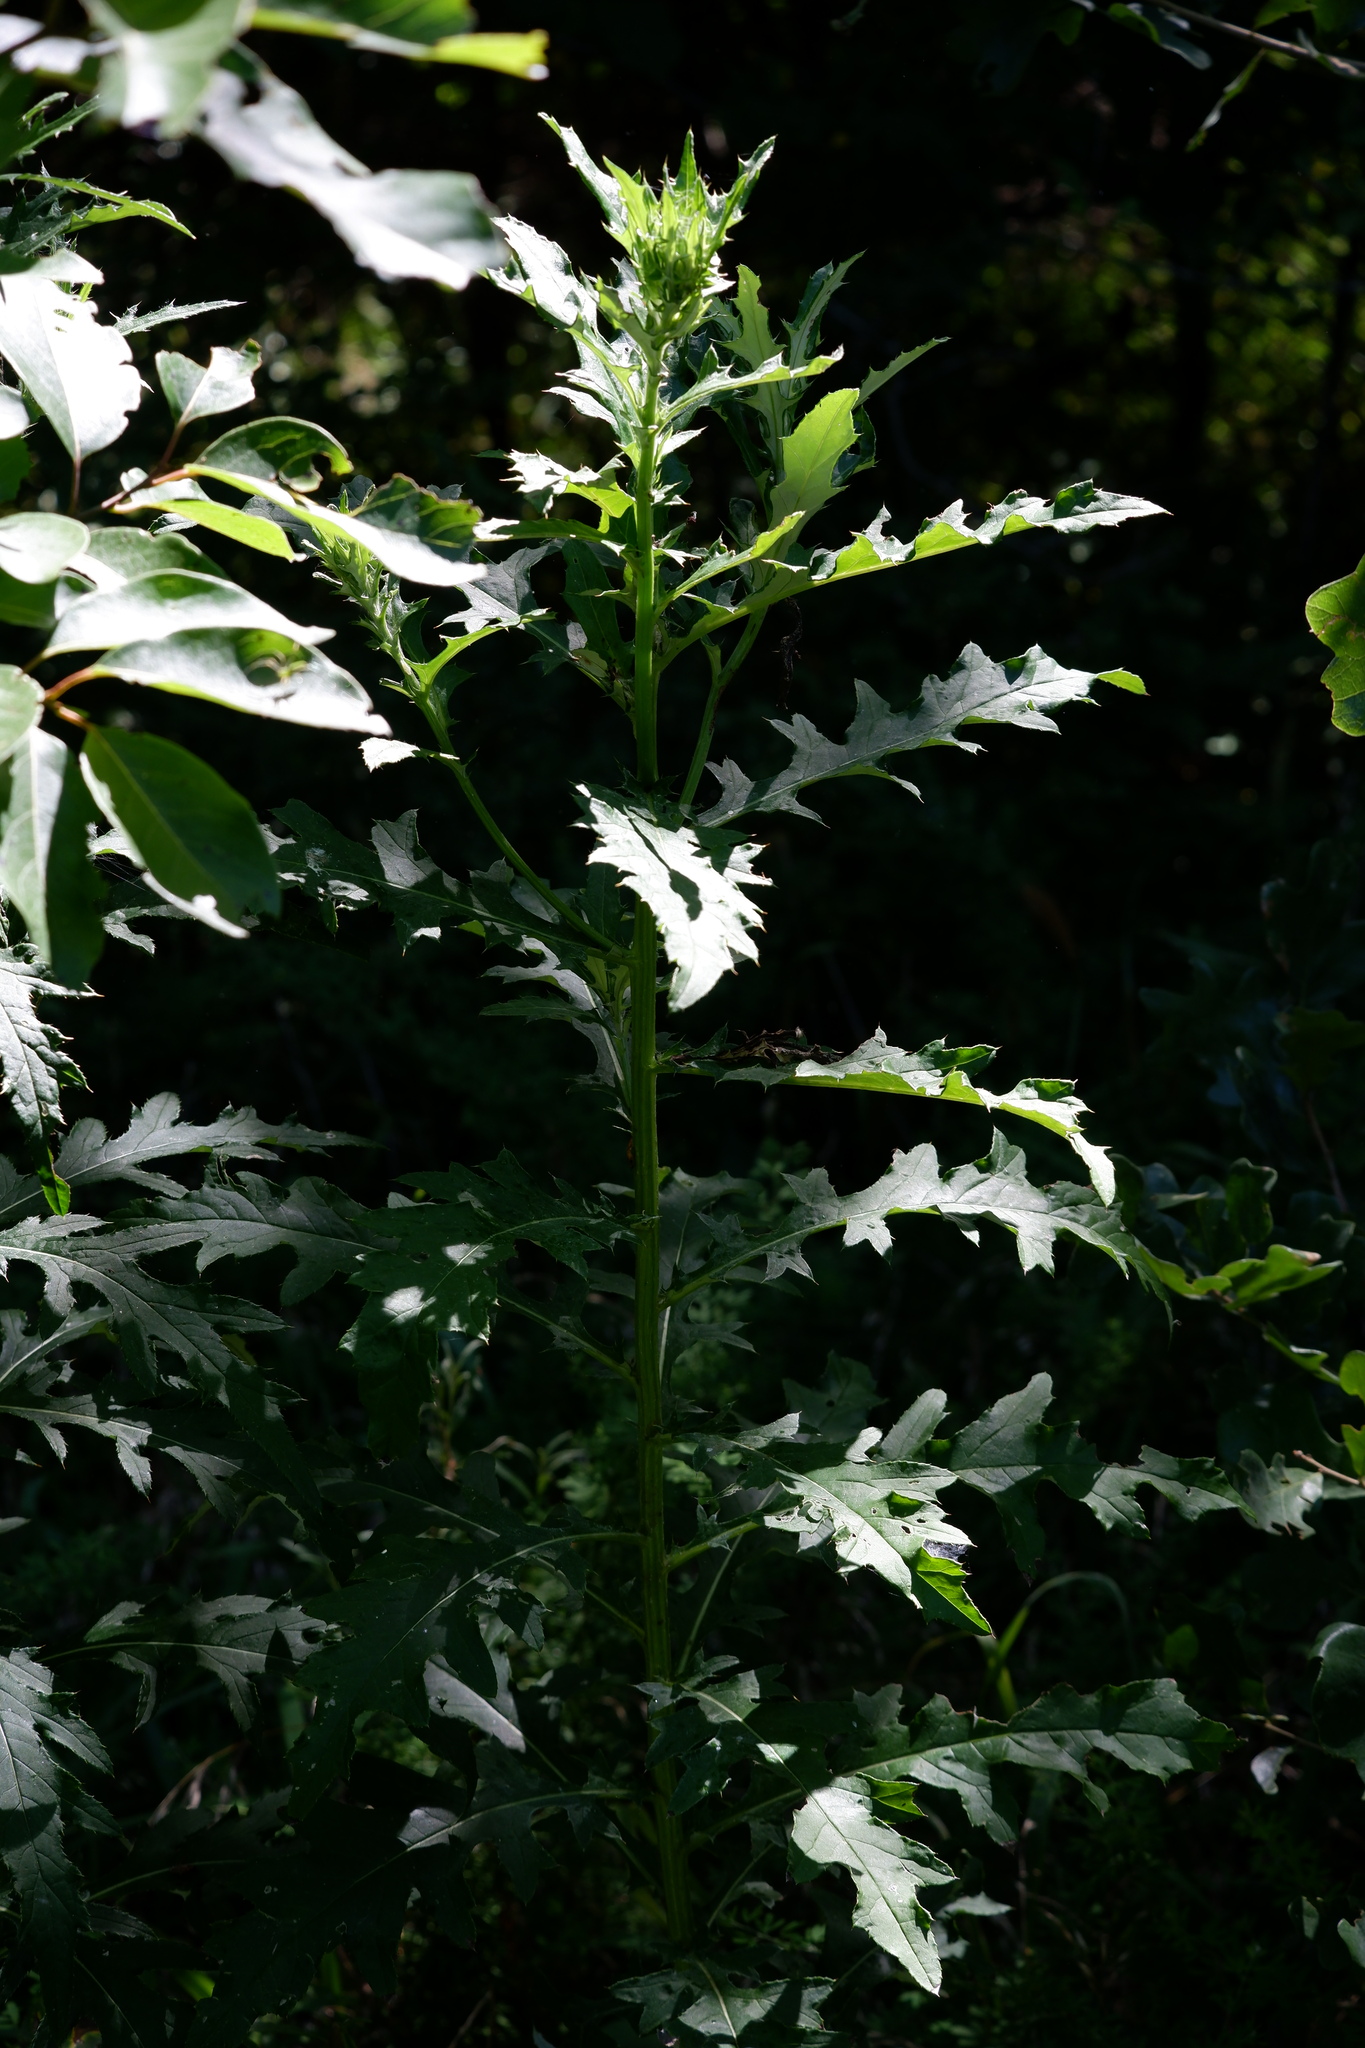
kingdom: Plantae
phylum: Tracheophyta
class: Magnoliopsida
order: Asterales
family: Asteraceae
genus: Cirsium
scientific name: Cirsium altissimum
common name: Roadside thistle
